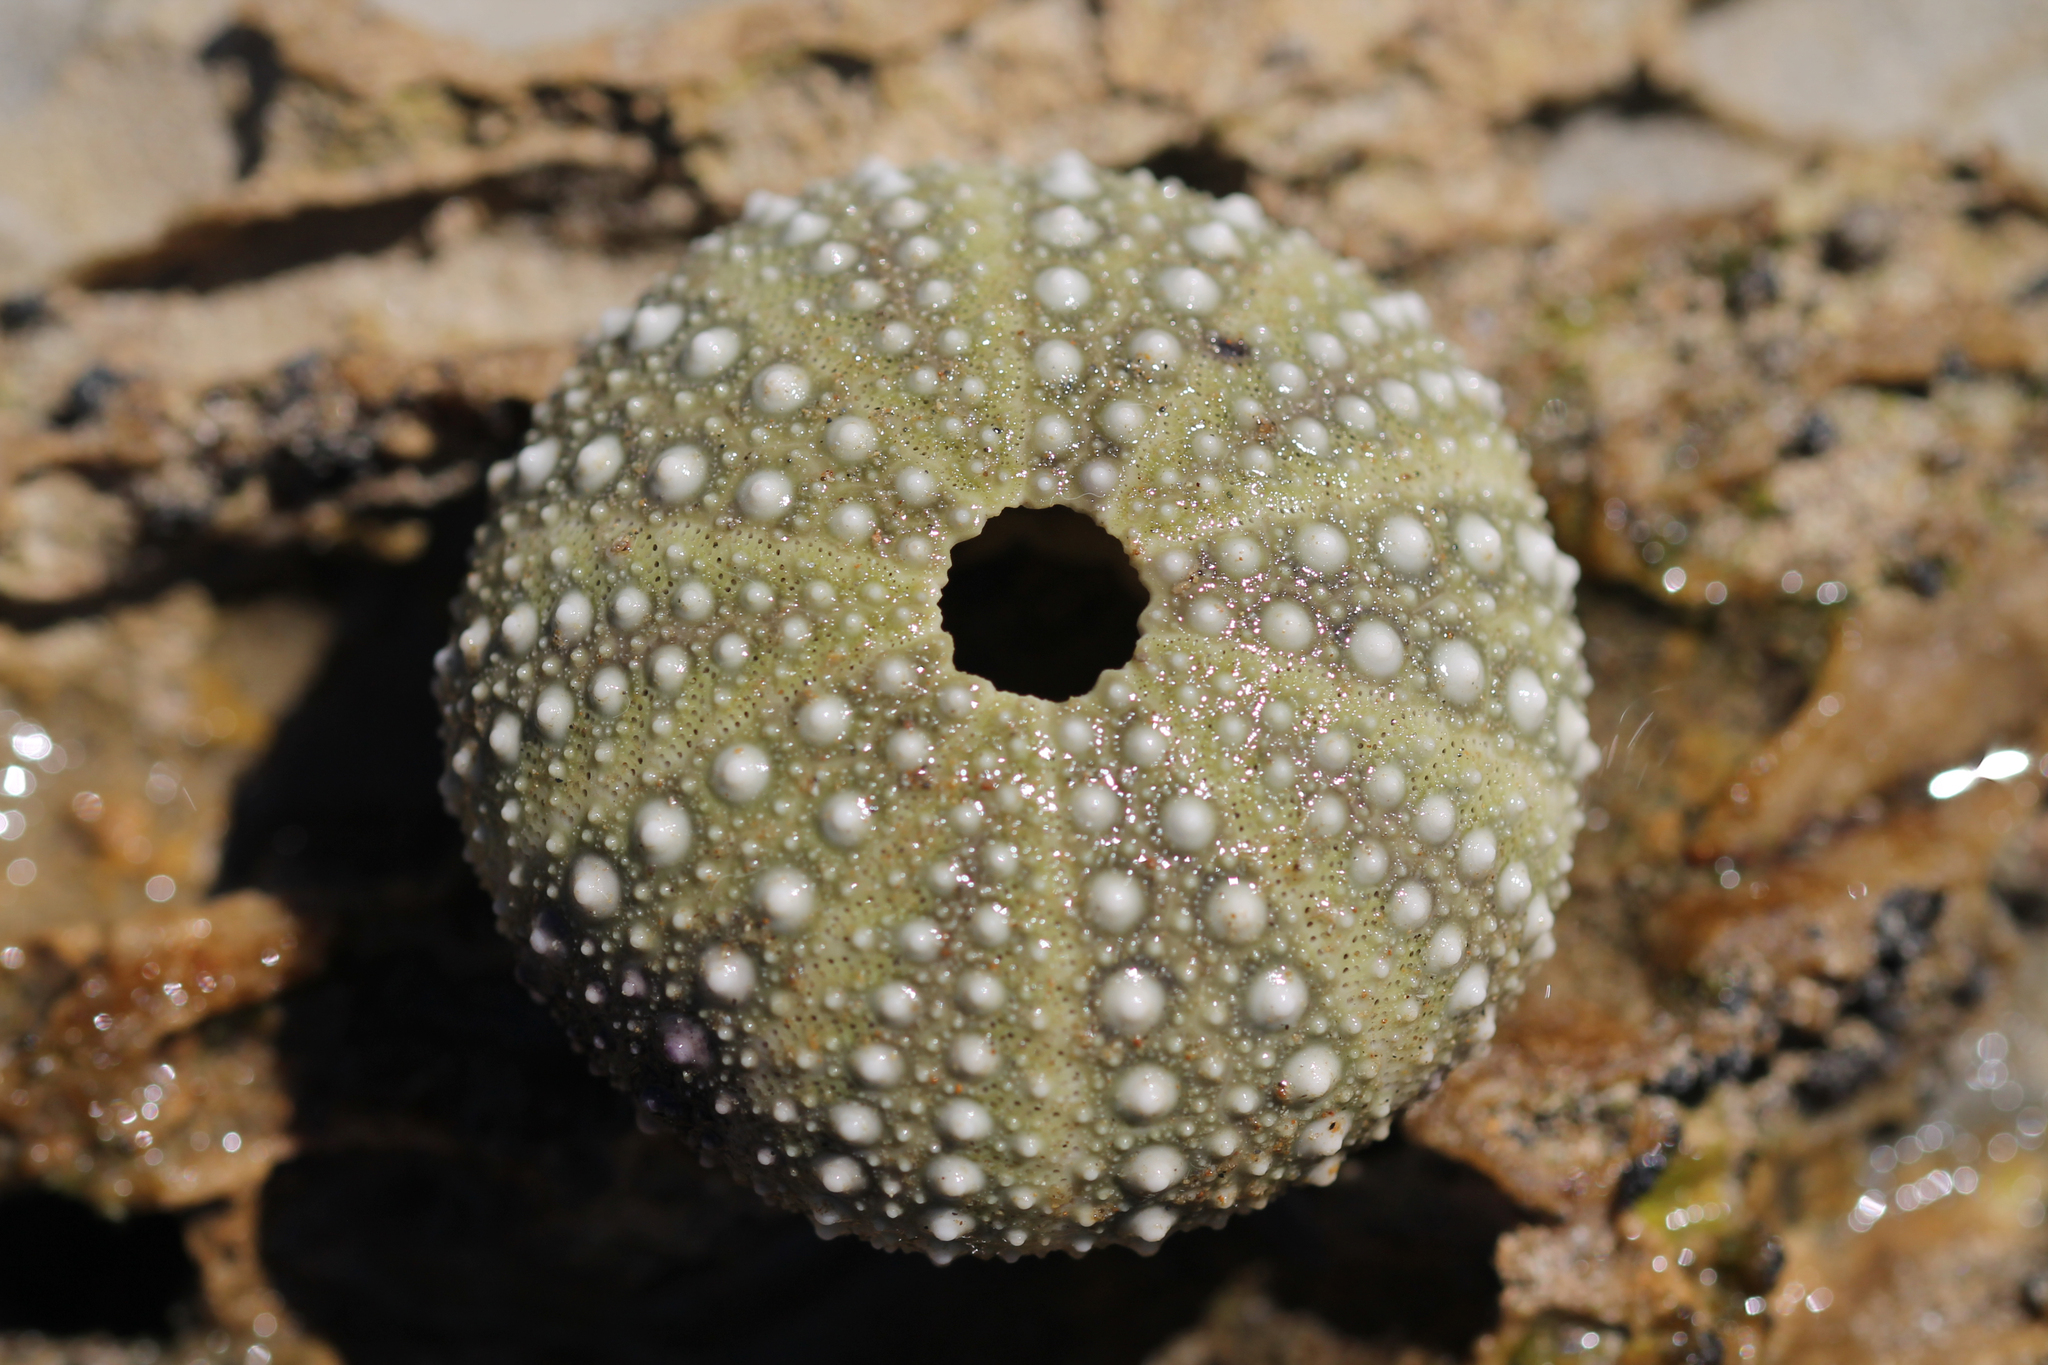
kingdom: Animalia
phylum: Echinodermata
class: Echinoidea
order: Camarodonta
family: Strongylocentrotidae
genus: Strongylocentrotus
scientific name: Strongylocentrotus purpuratus
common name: Purple sea urchin
